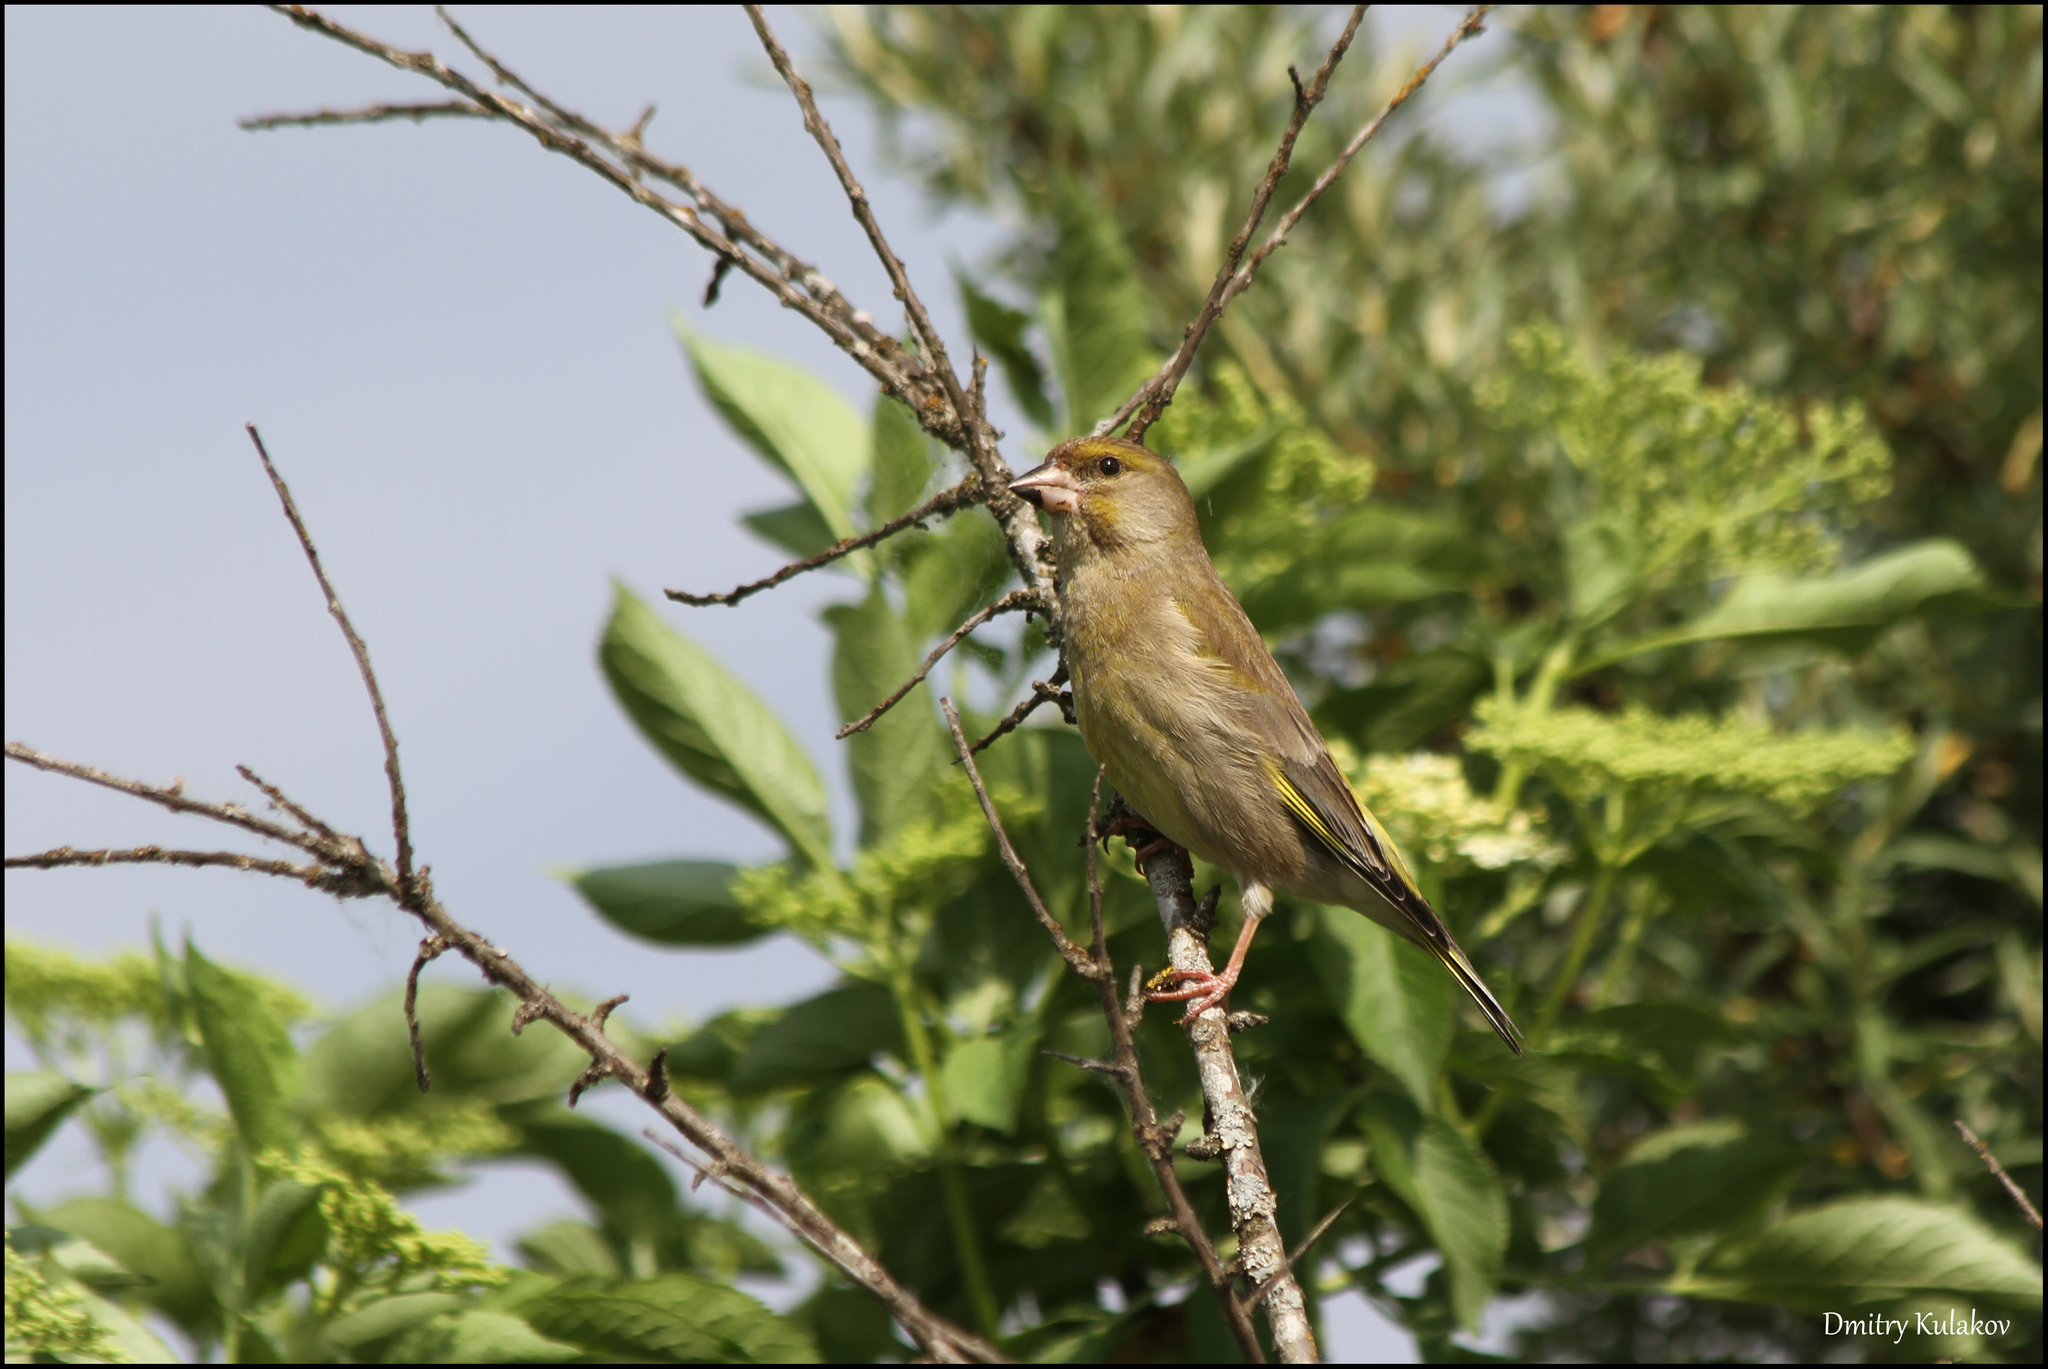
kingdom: Plantae
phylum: Tracheophyta
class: Liliopsida
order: Poales
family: Poaceae
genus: Chloris
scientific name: Chloris chloris
